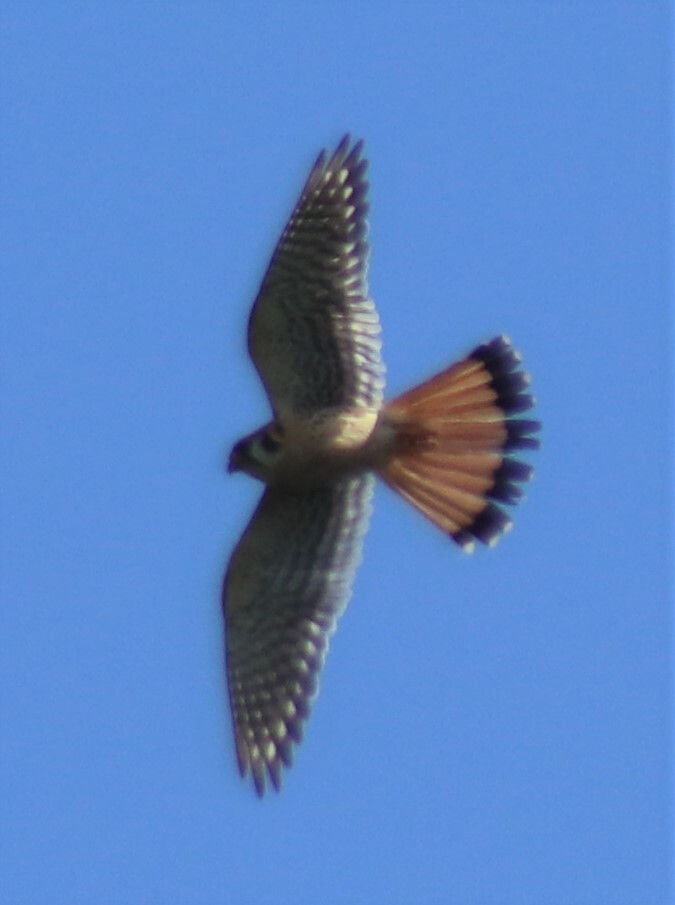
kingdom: Animalia
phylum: Chordata
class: Aves
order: Falconiformes
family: Falconidae
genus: Falco
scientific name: Falco sparverius
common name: American kestrel
